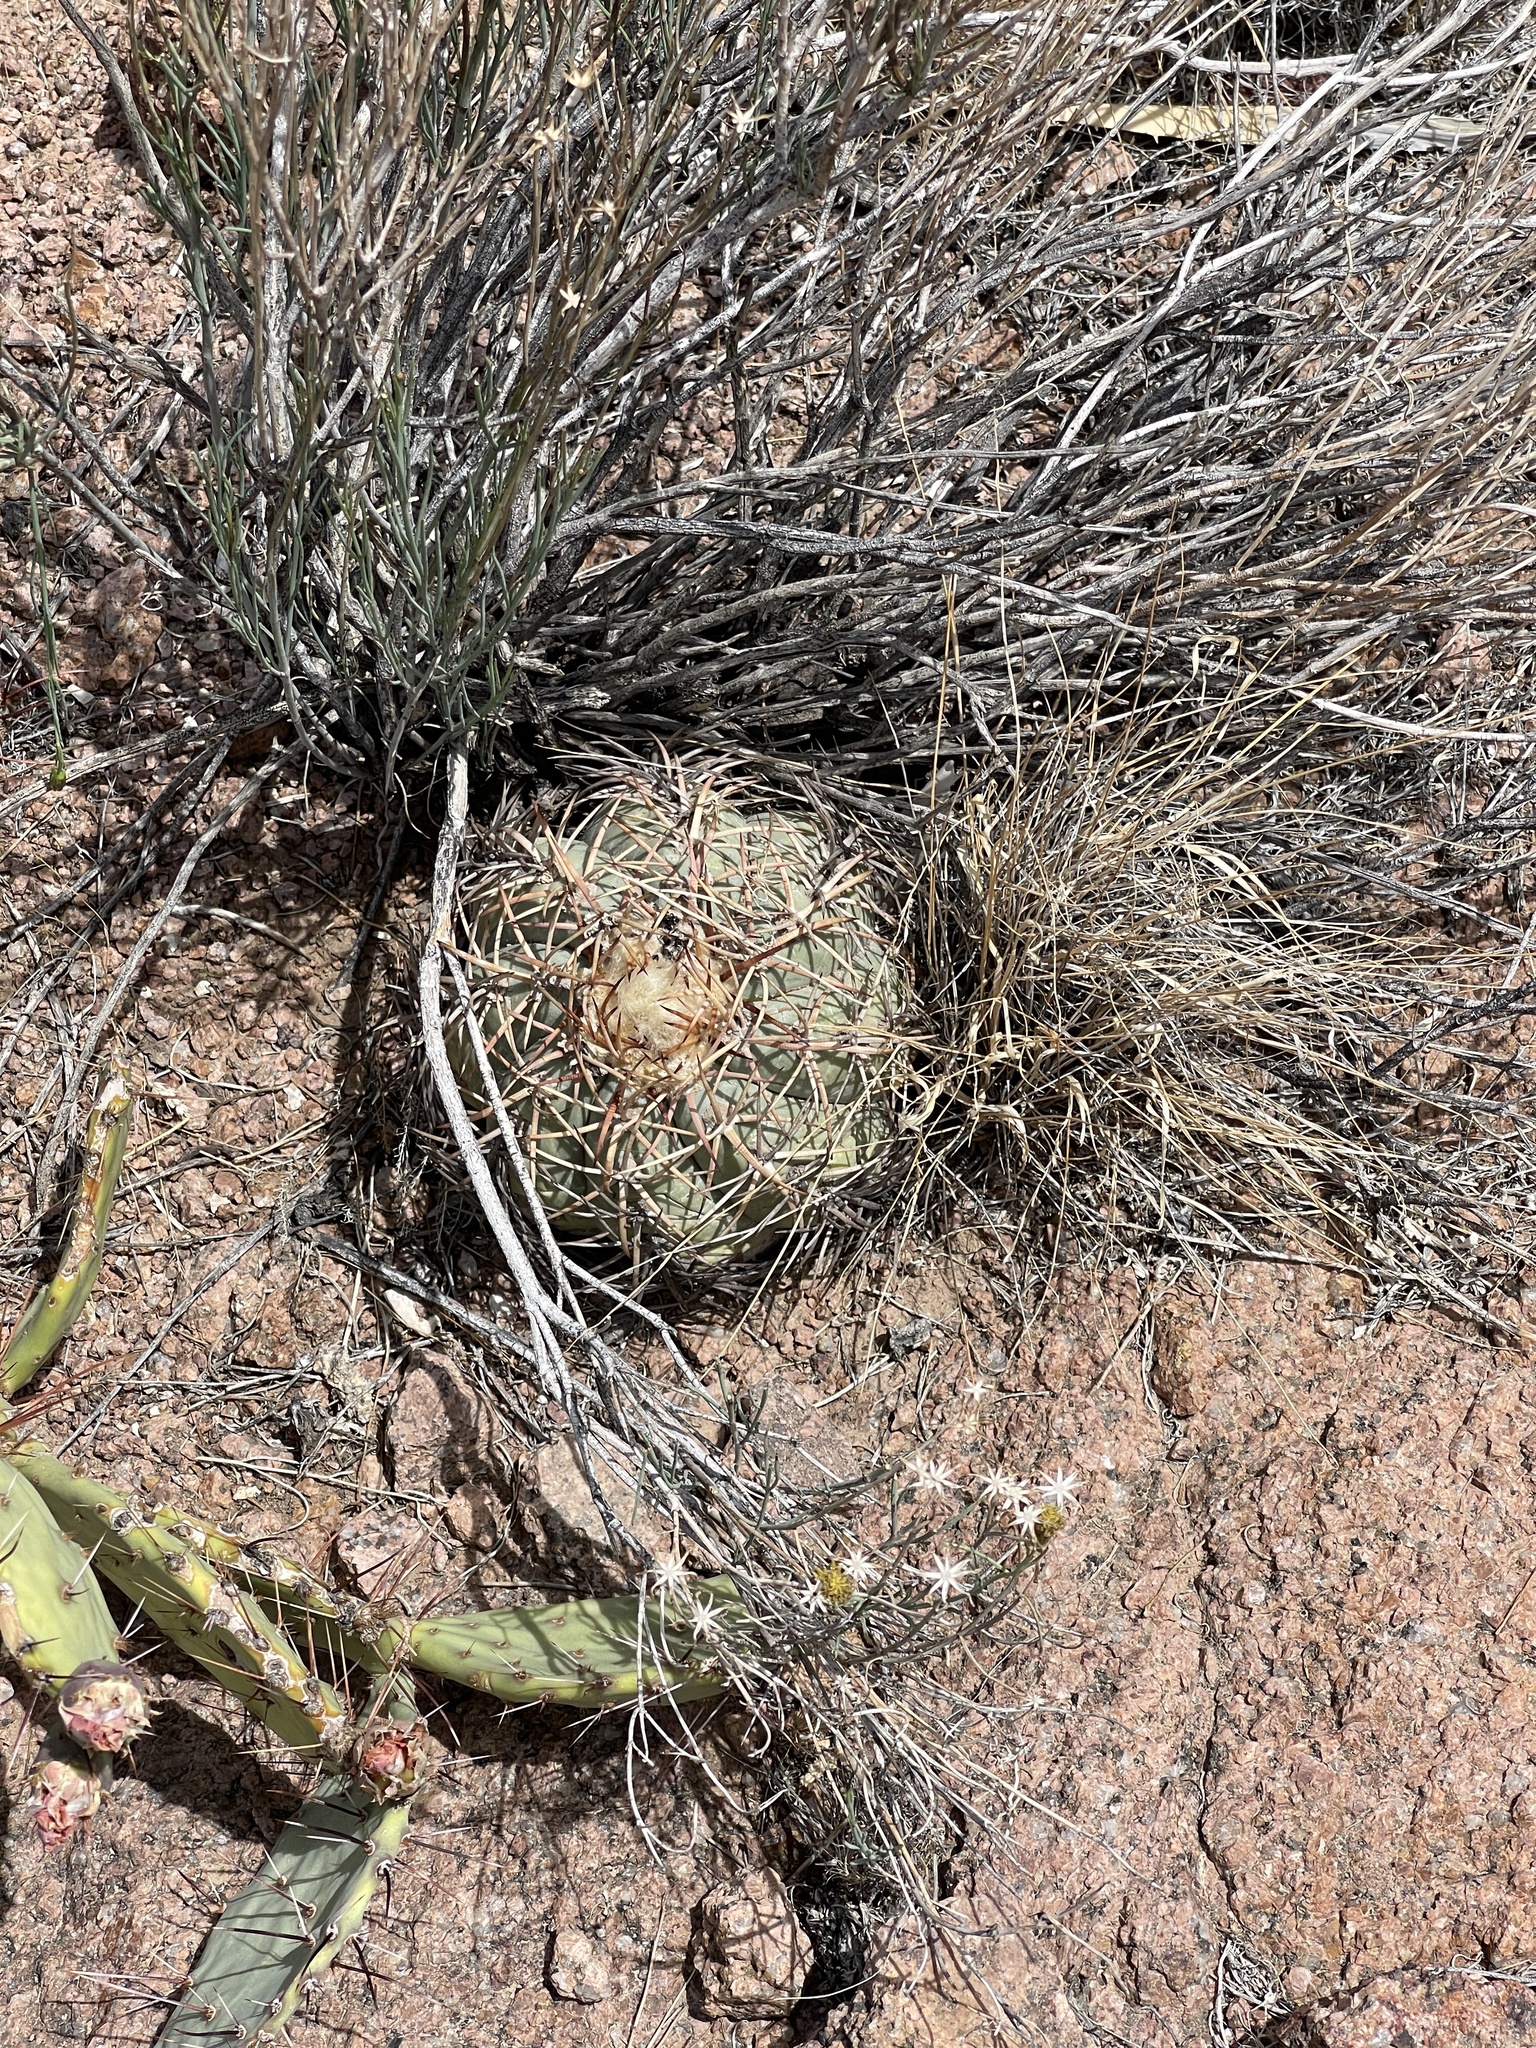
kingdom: Plantae
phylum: Tracheophyta
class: Magnoliopsida
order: Caryophyllales
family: Cactaceae
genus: Echinocactus
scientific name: Echinocactus horizonthalonius
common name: Devilshead
